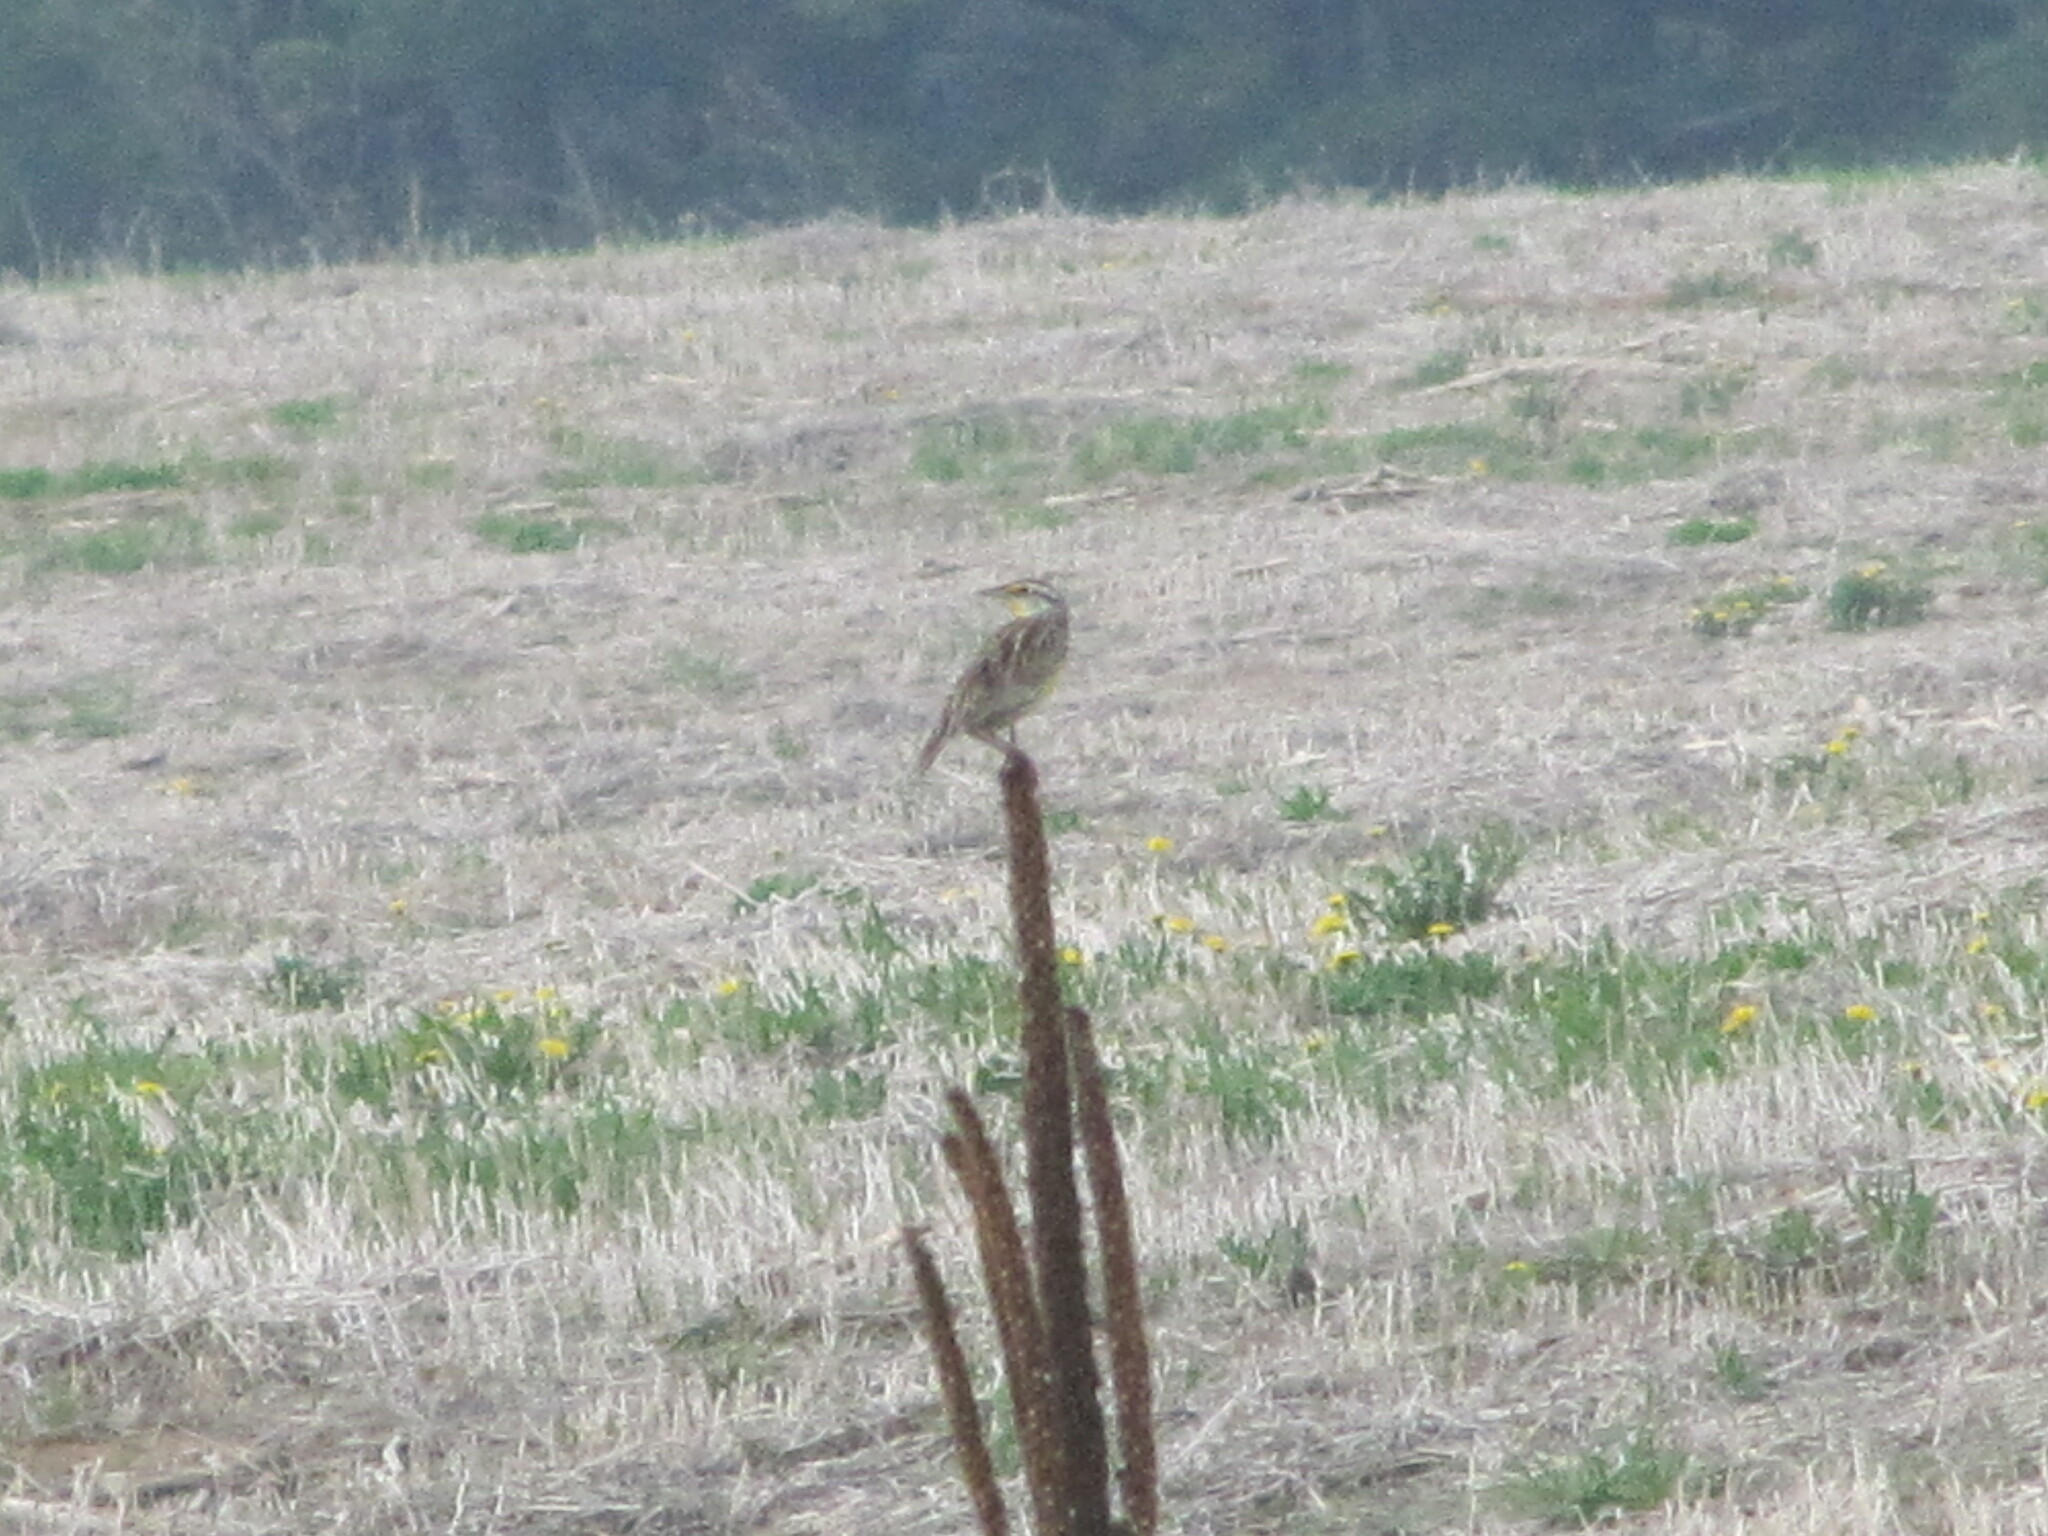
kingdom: Animalia
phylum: Chordata
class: Aves
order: Passeriformes
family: Icteridae
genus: Sturnella
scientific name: Sturnella magna
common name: Eastern meadowlark
